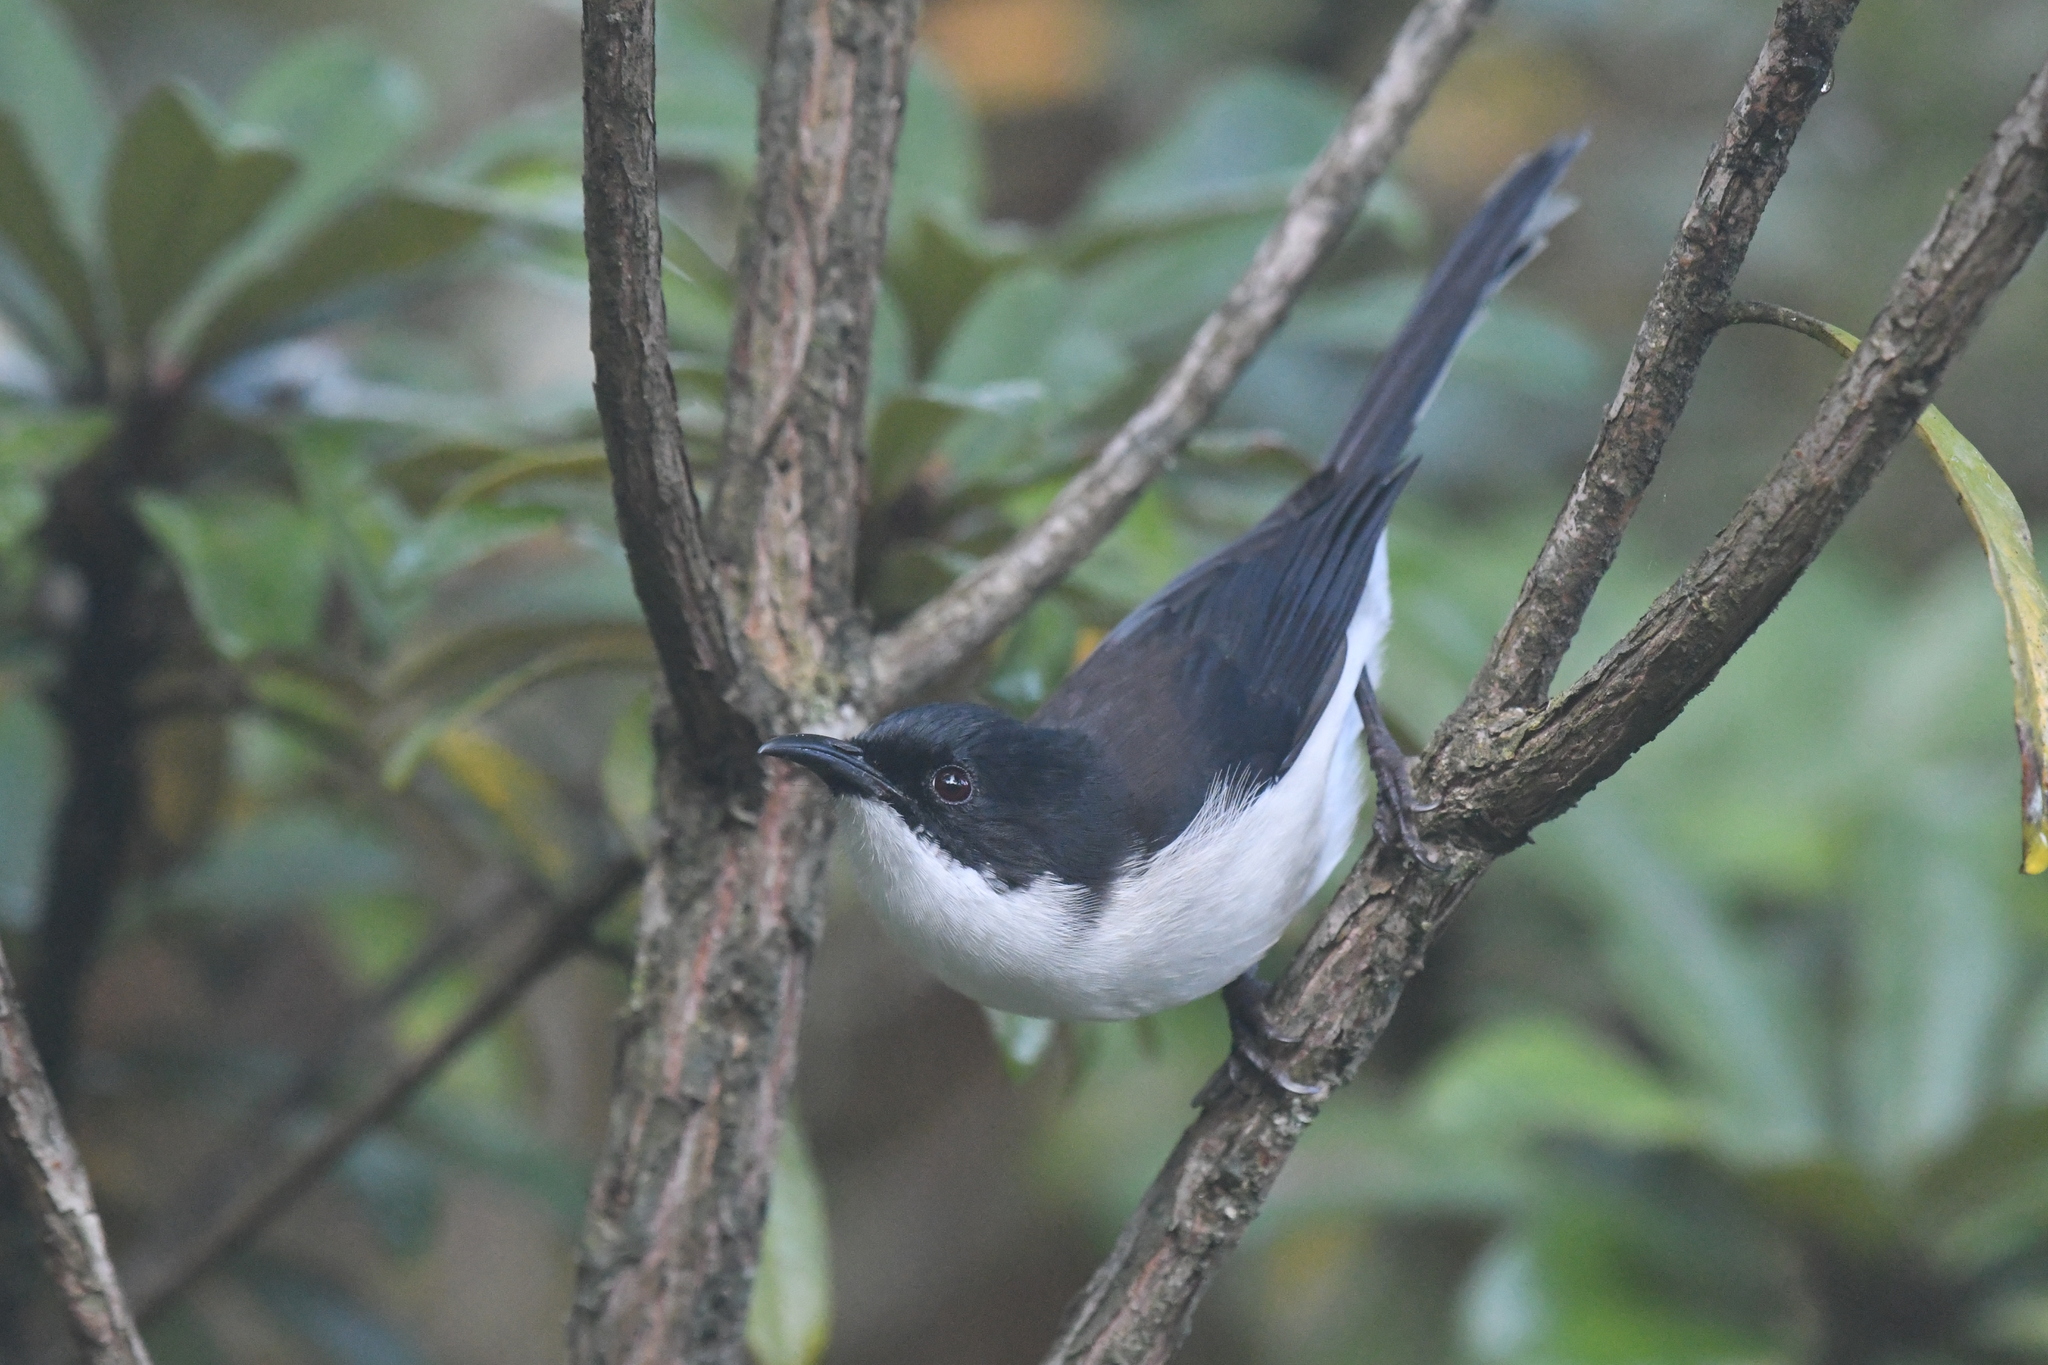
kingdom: Animalia
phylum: Chordata
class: Aves
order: Passeriformes
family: Leiothrichidae
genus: Heterophasia
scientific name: Heterophasia melanoleuca
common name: Dark-backed sibia
